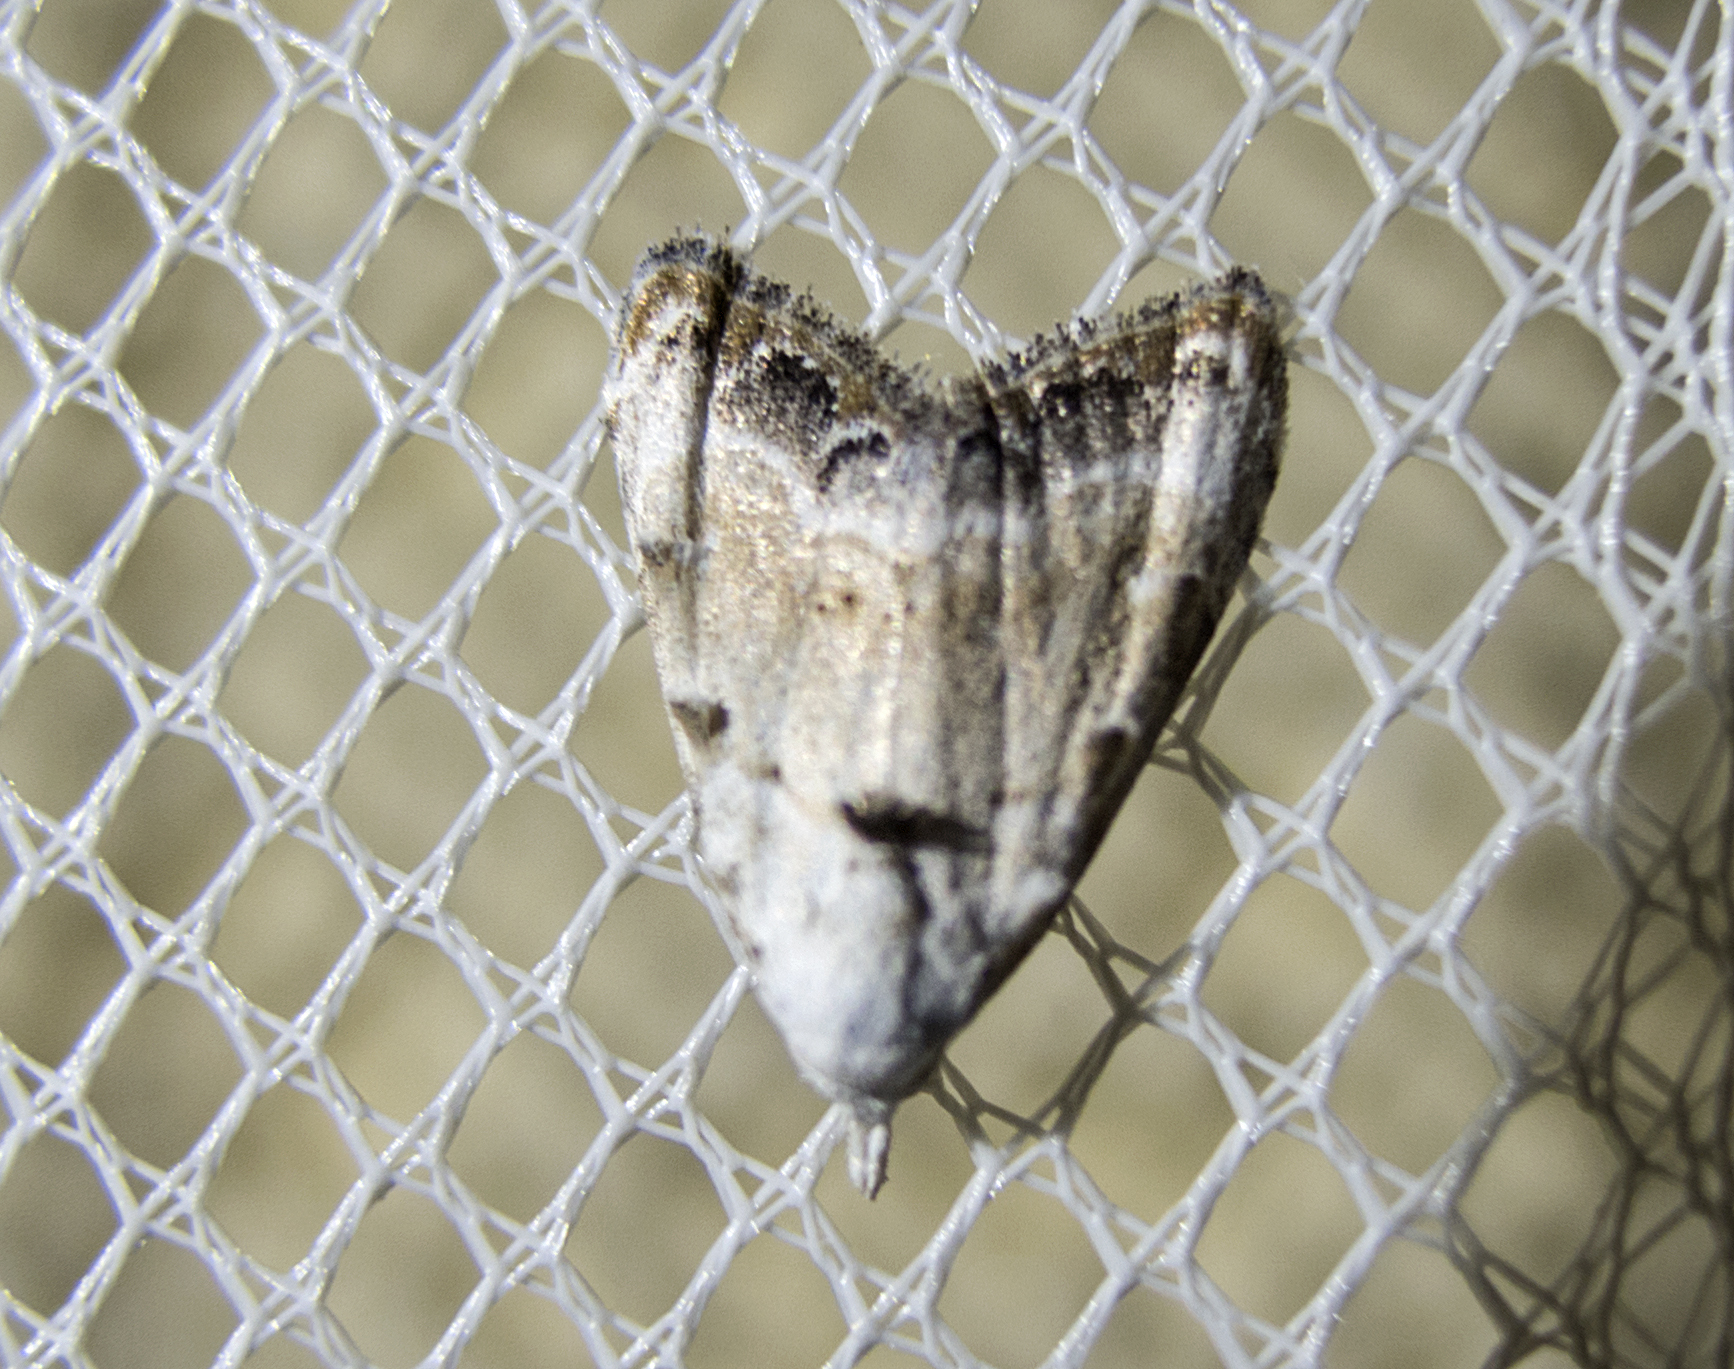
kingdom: Animalia
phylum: Arthropoda
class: Insecta
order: Lepidoptera
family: Nolidae
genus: Nola
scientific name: Nola chlamitulalis
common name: Jersey black arches
